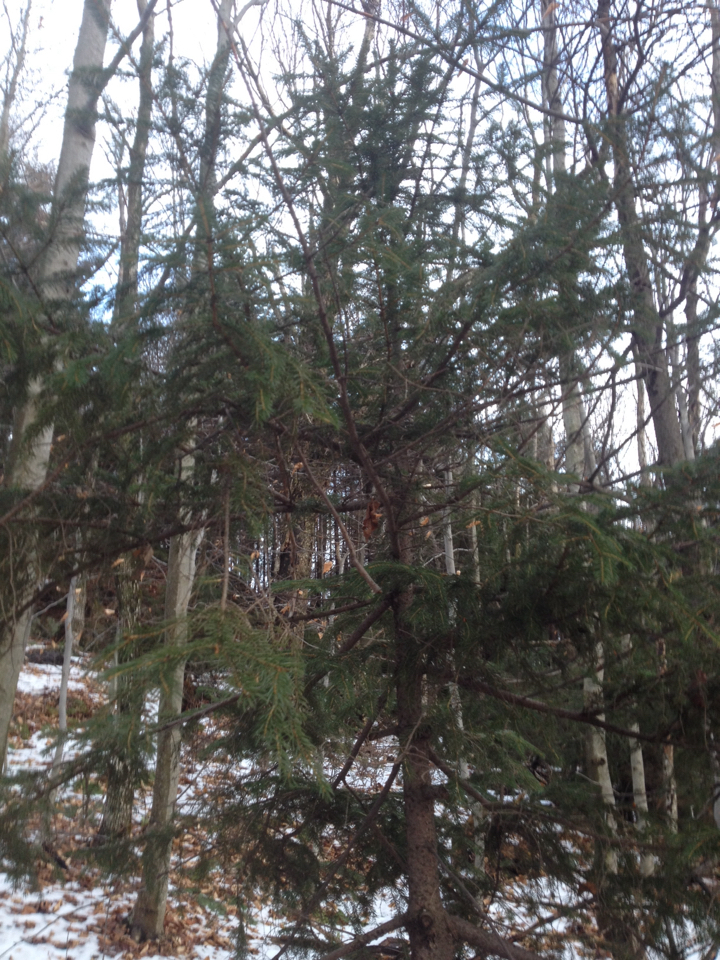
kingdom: Plantae
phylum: Tracheophyta
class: Pinopsida
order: Pinales
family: Pinaceae
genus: Picea
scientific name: Picea rubens
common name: Red spruce
